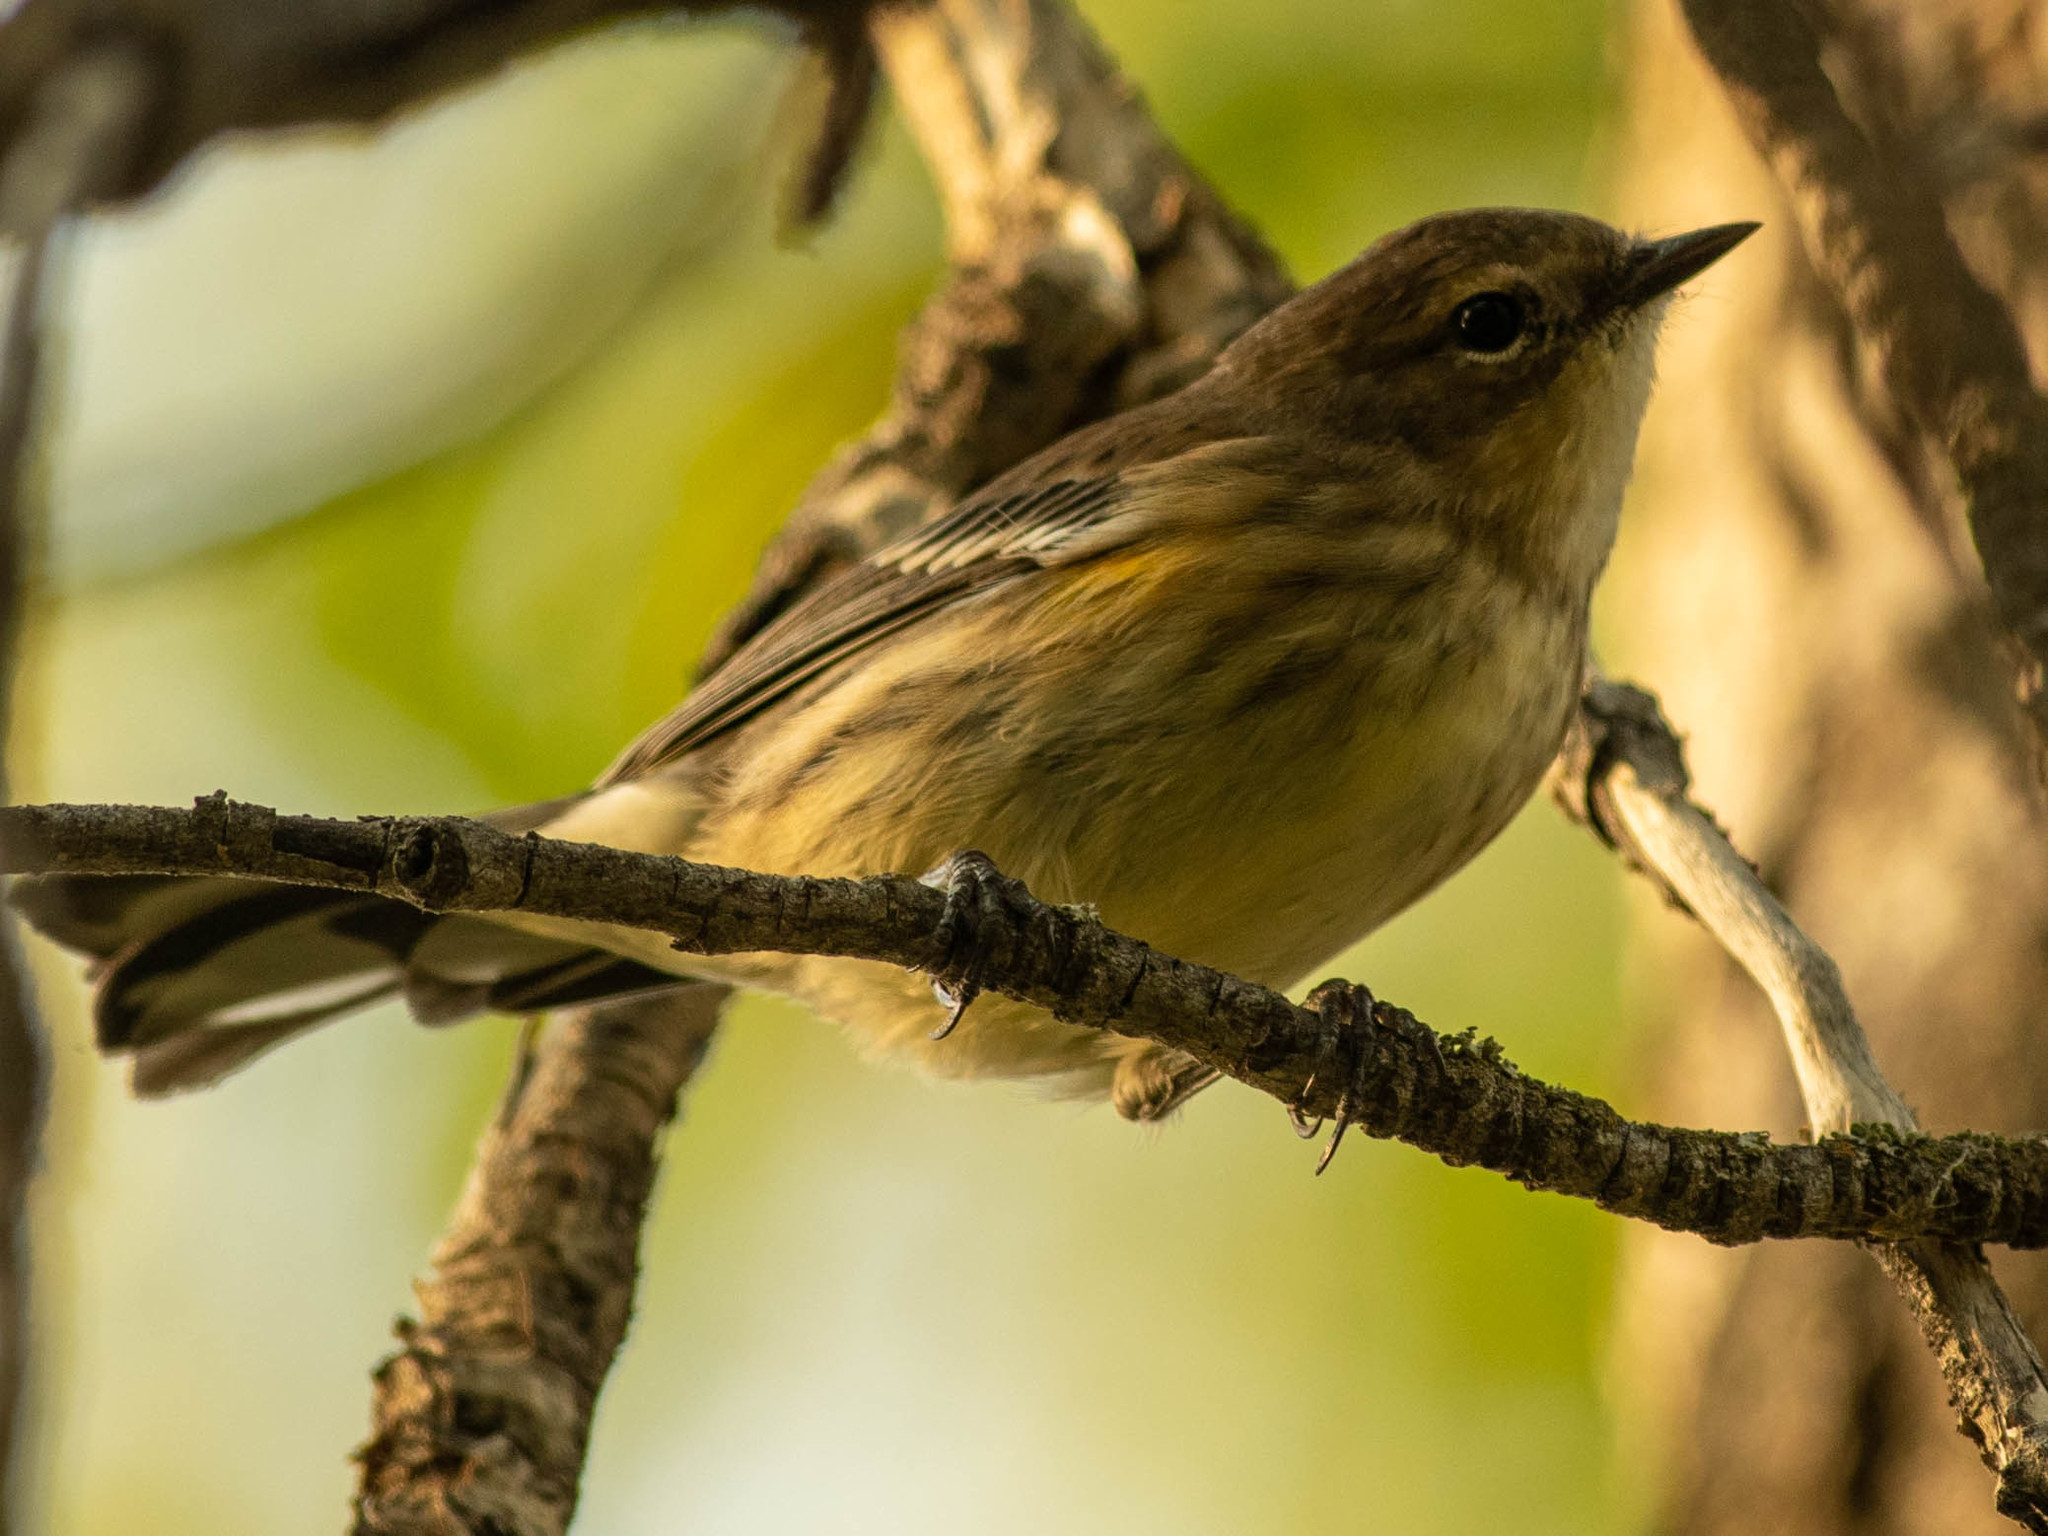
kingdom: Animalia
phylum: Chordata
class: Aves
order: Passeriformes
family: Parulidae
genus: Setophaga
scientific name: Setophaga coronata
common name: Myrtle warbler
